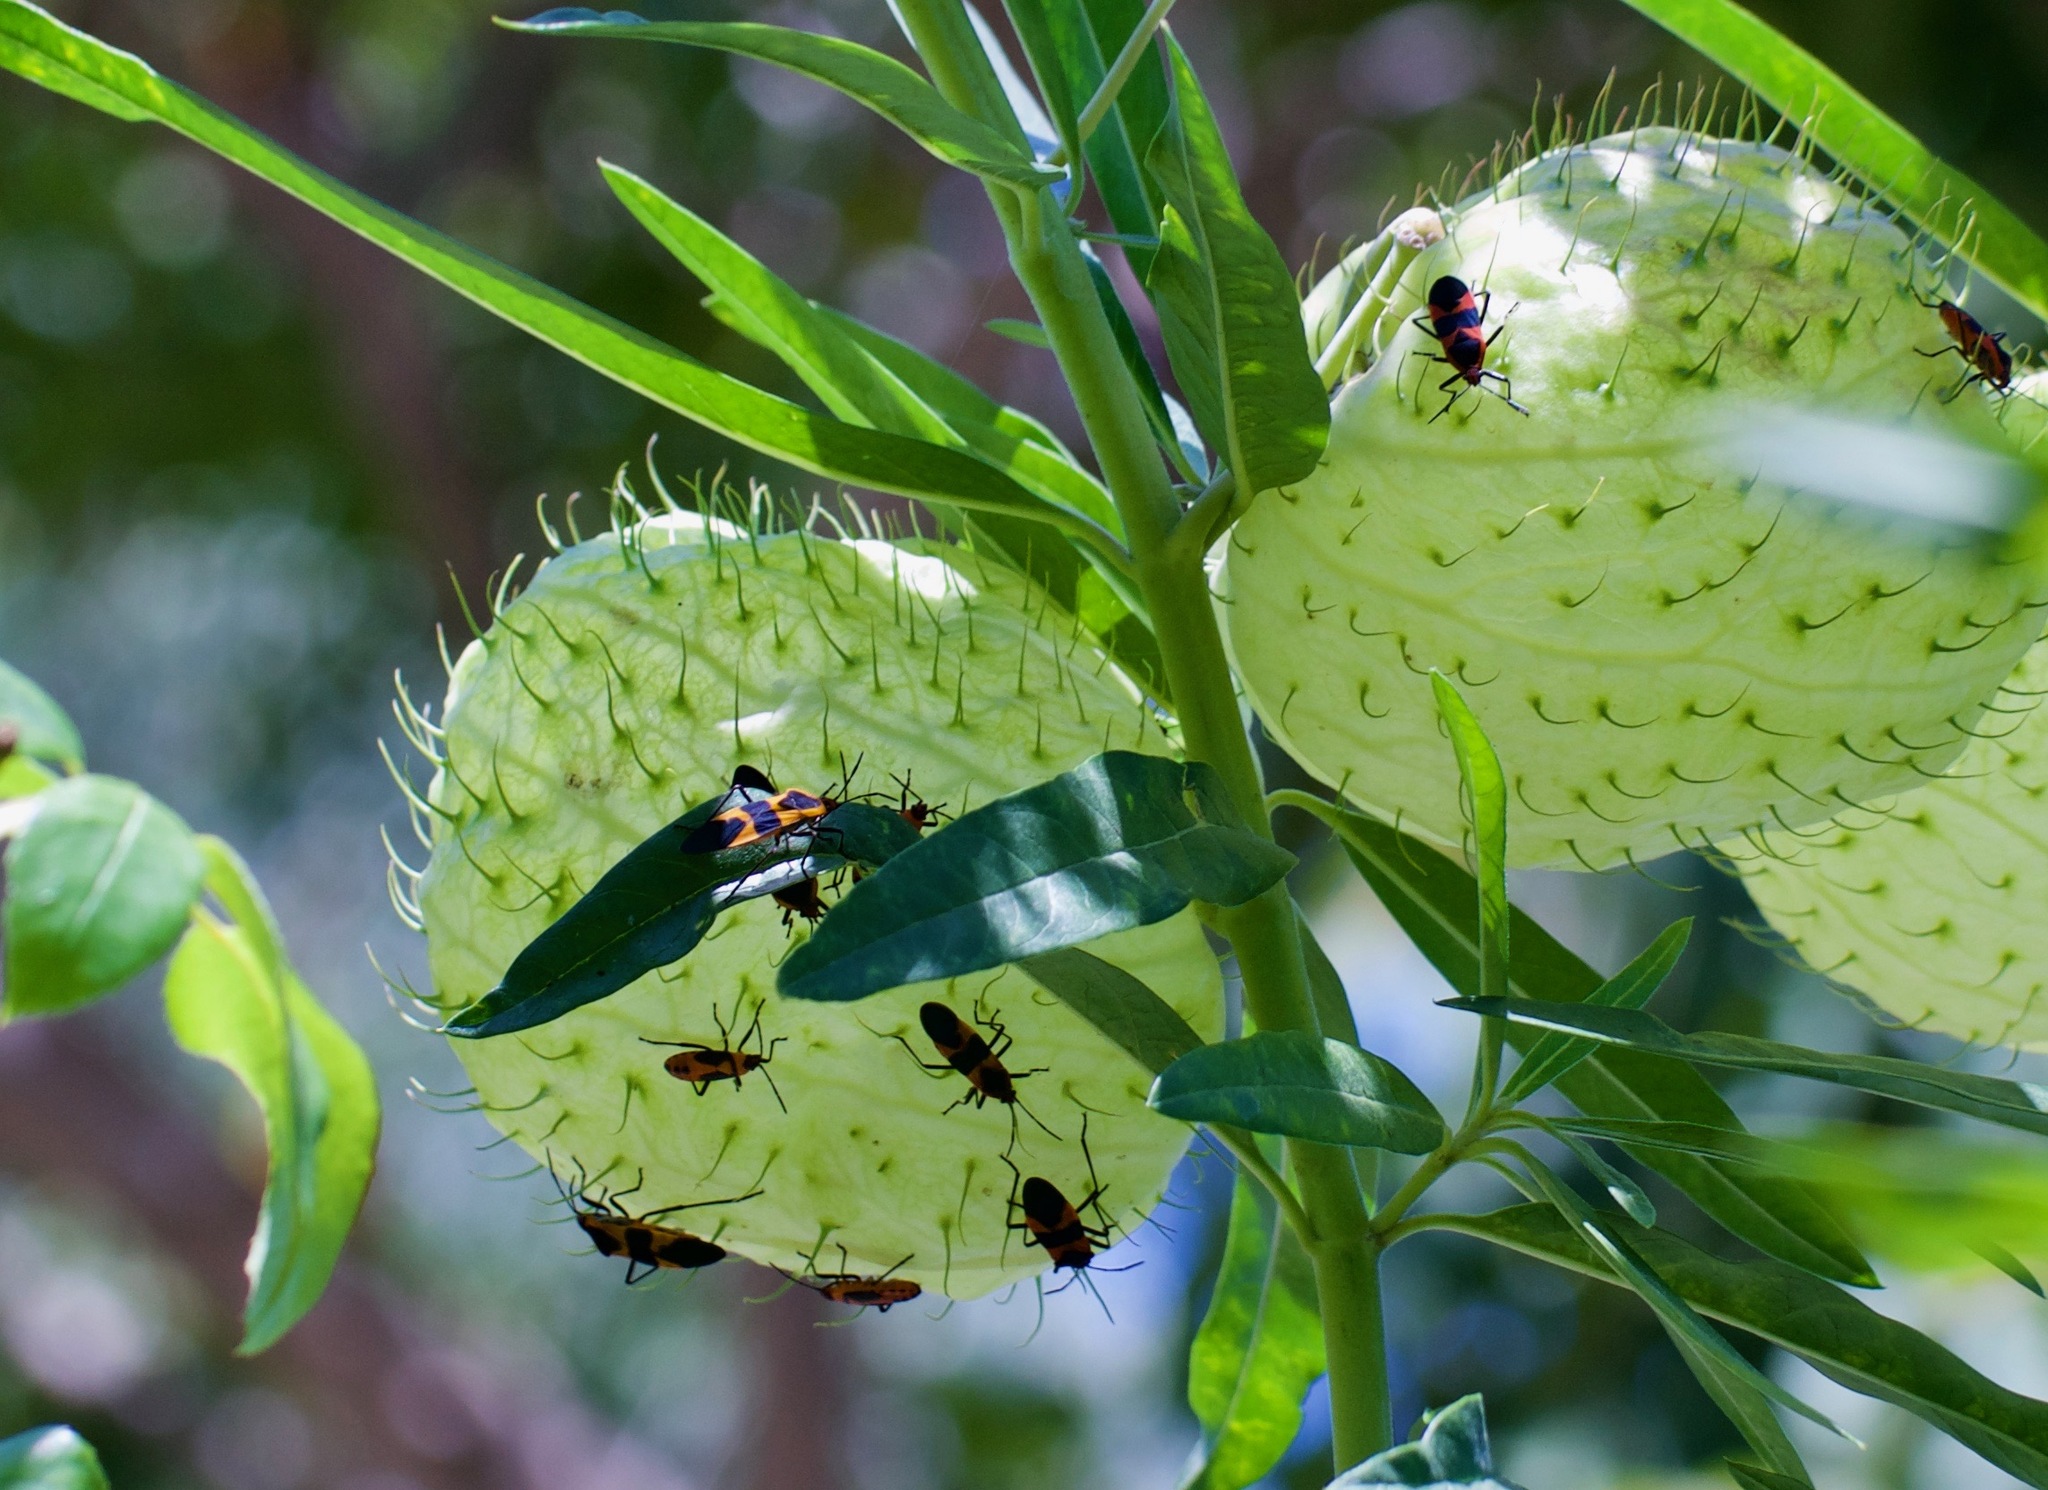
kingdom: Animalia
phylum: Arthropoda
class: Insecta
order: Hemiptera
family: Lygaeidae
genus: Oncopeltus
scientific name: Oncopeltus fasciatus
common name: Large milkweed bug
